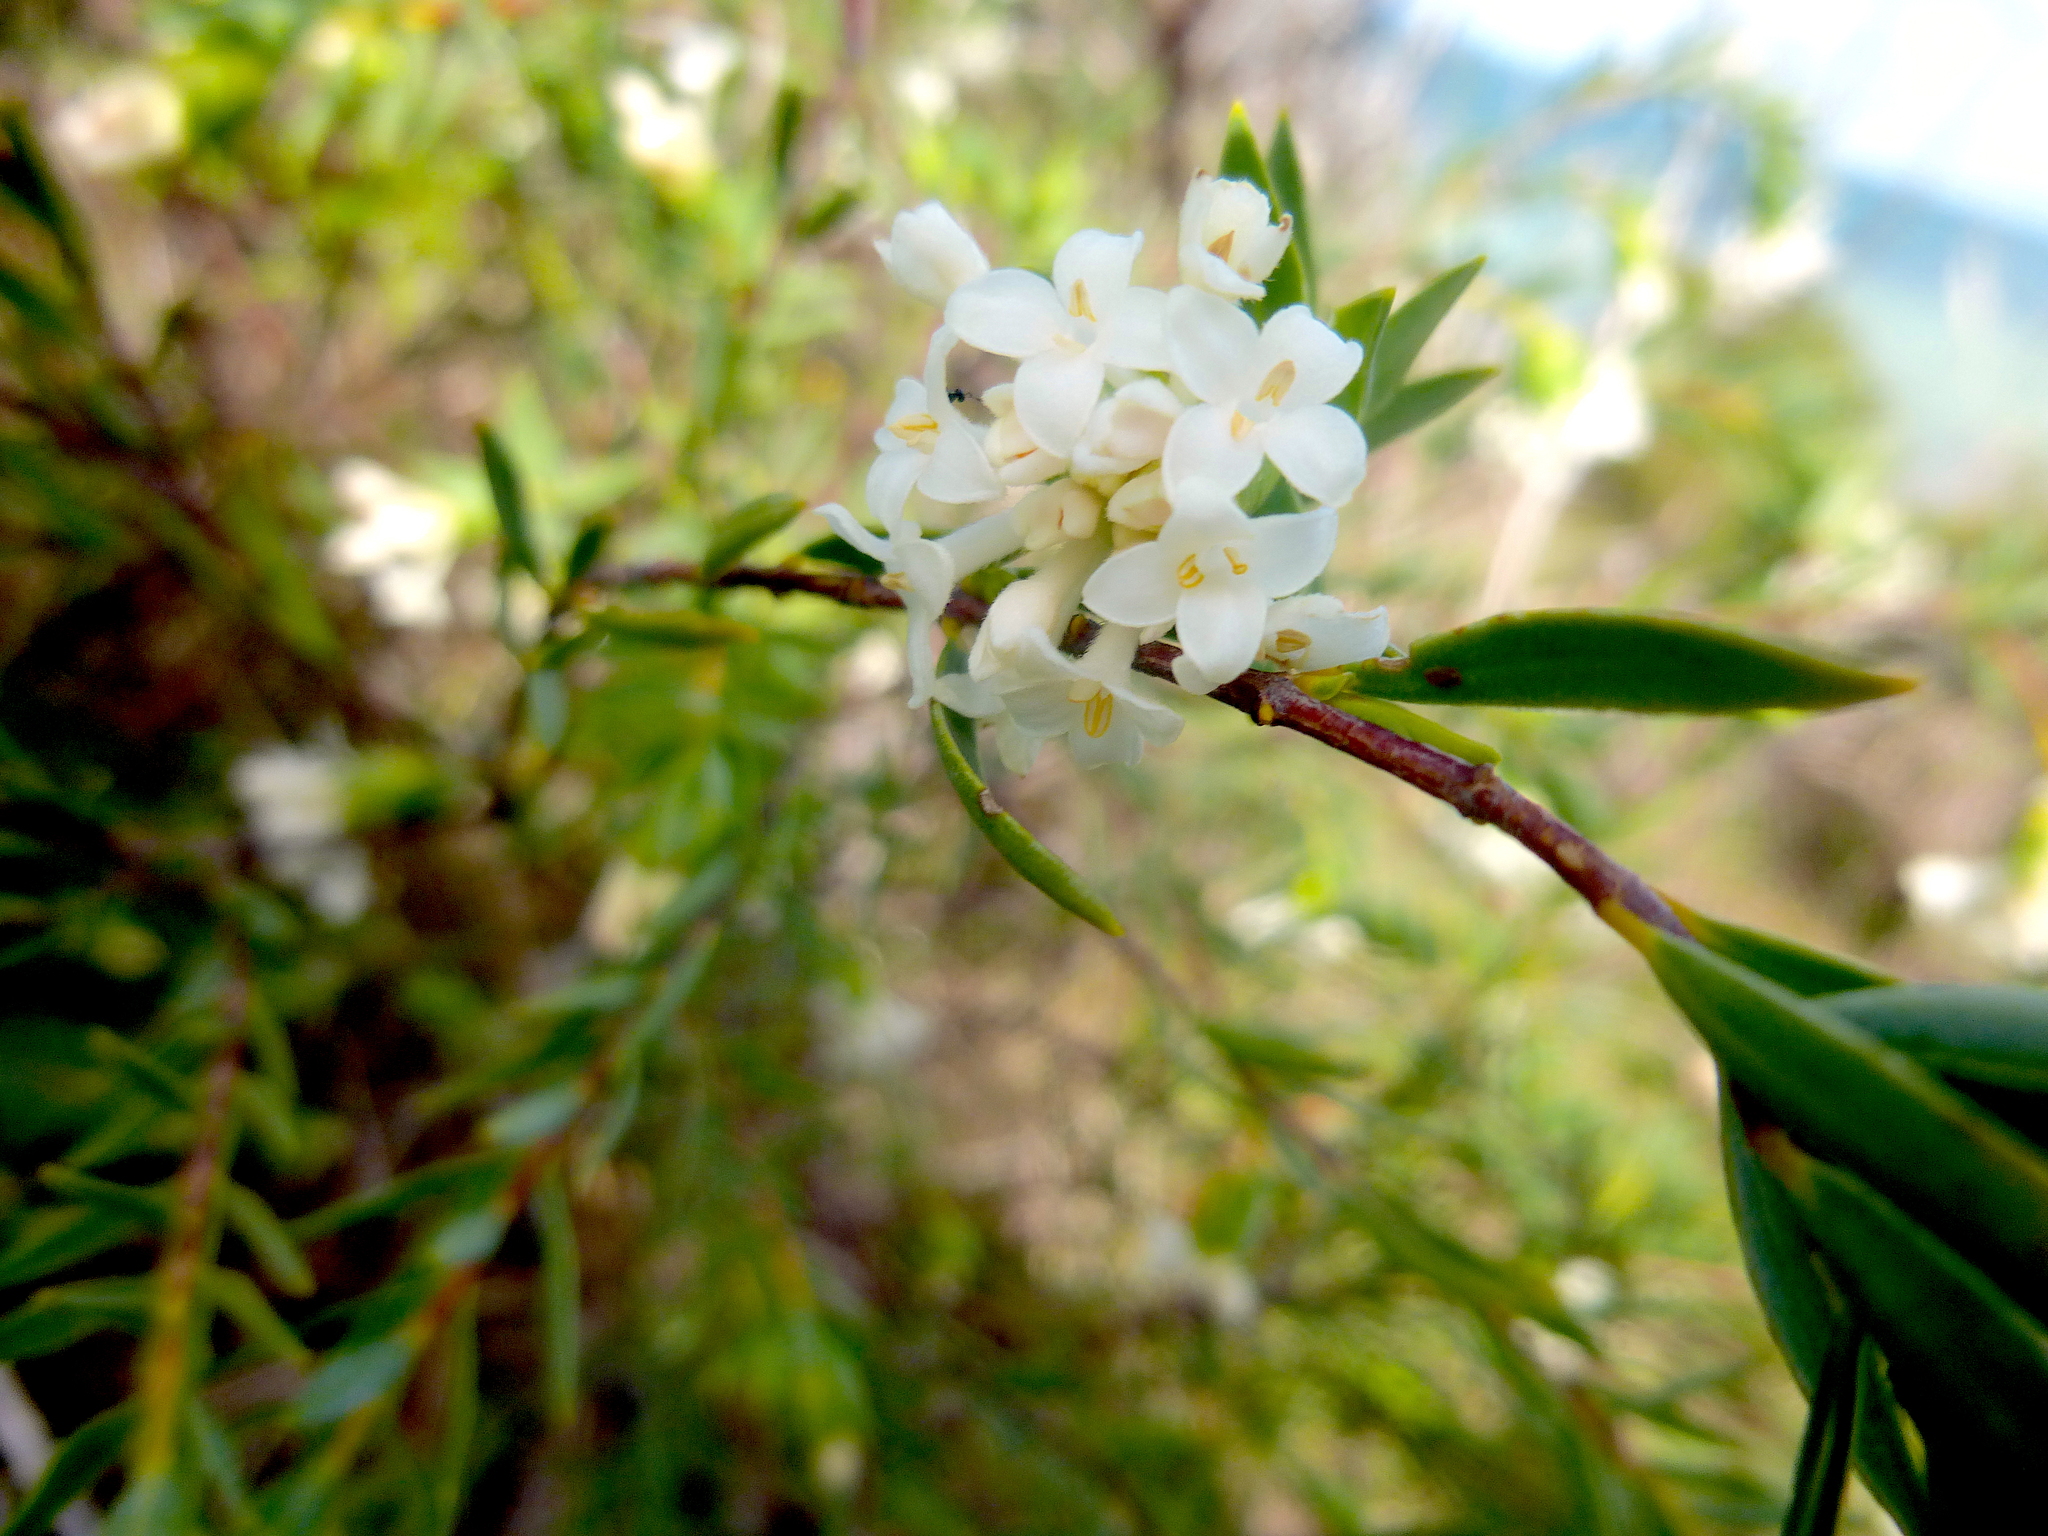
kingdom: Plantae
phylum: Tracheophyta
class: Magnoliopsida
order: Malvales
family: Thymelaeaceae
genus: Pimelea
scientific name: Pimelea stricta
